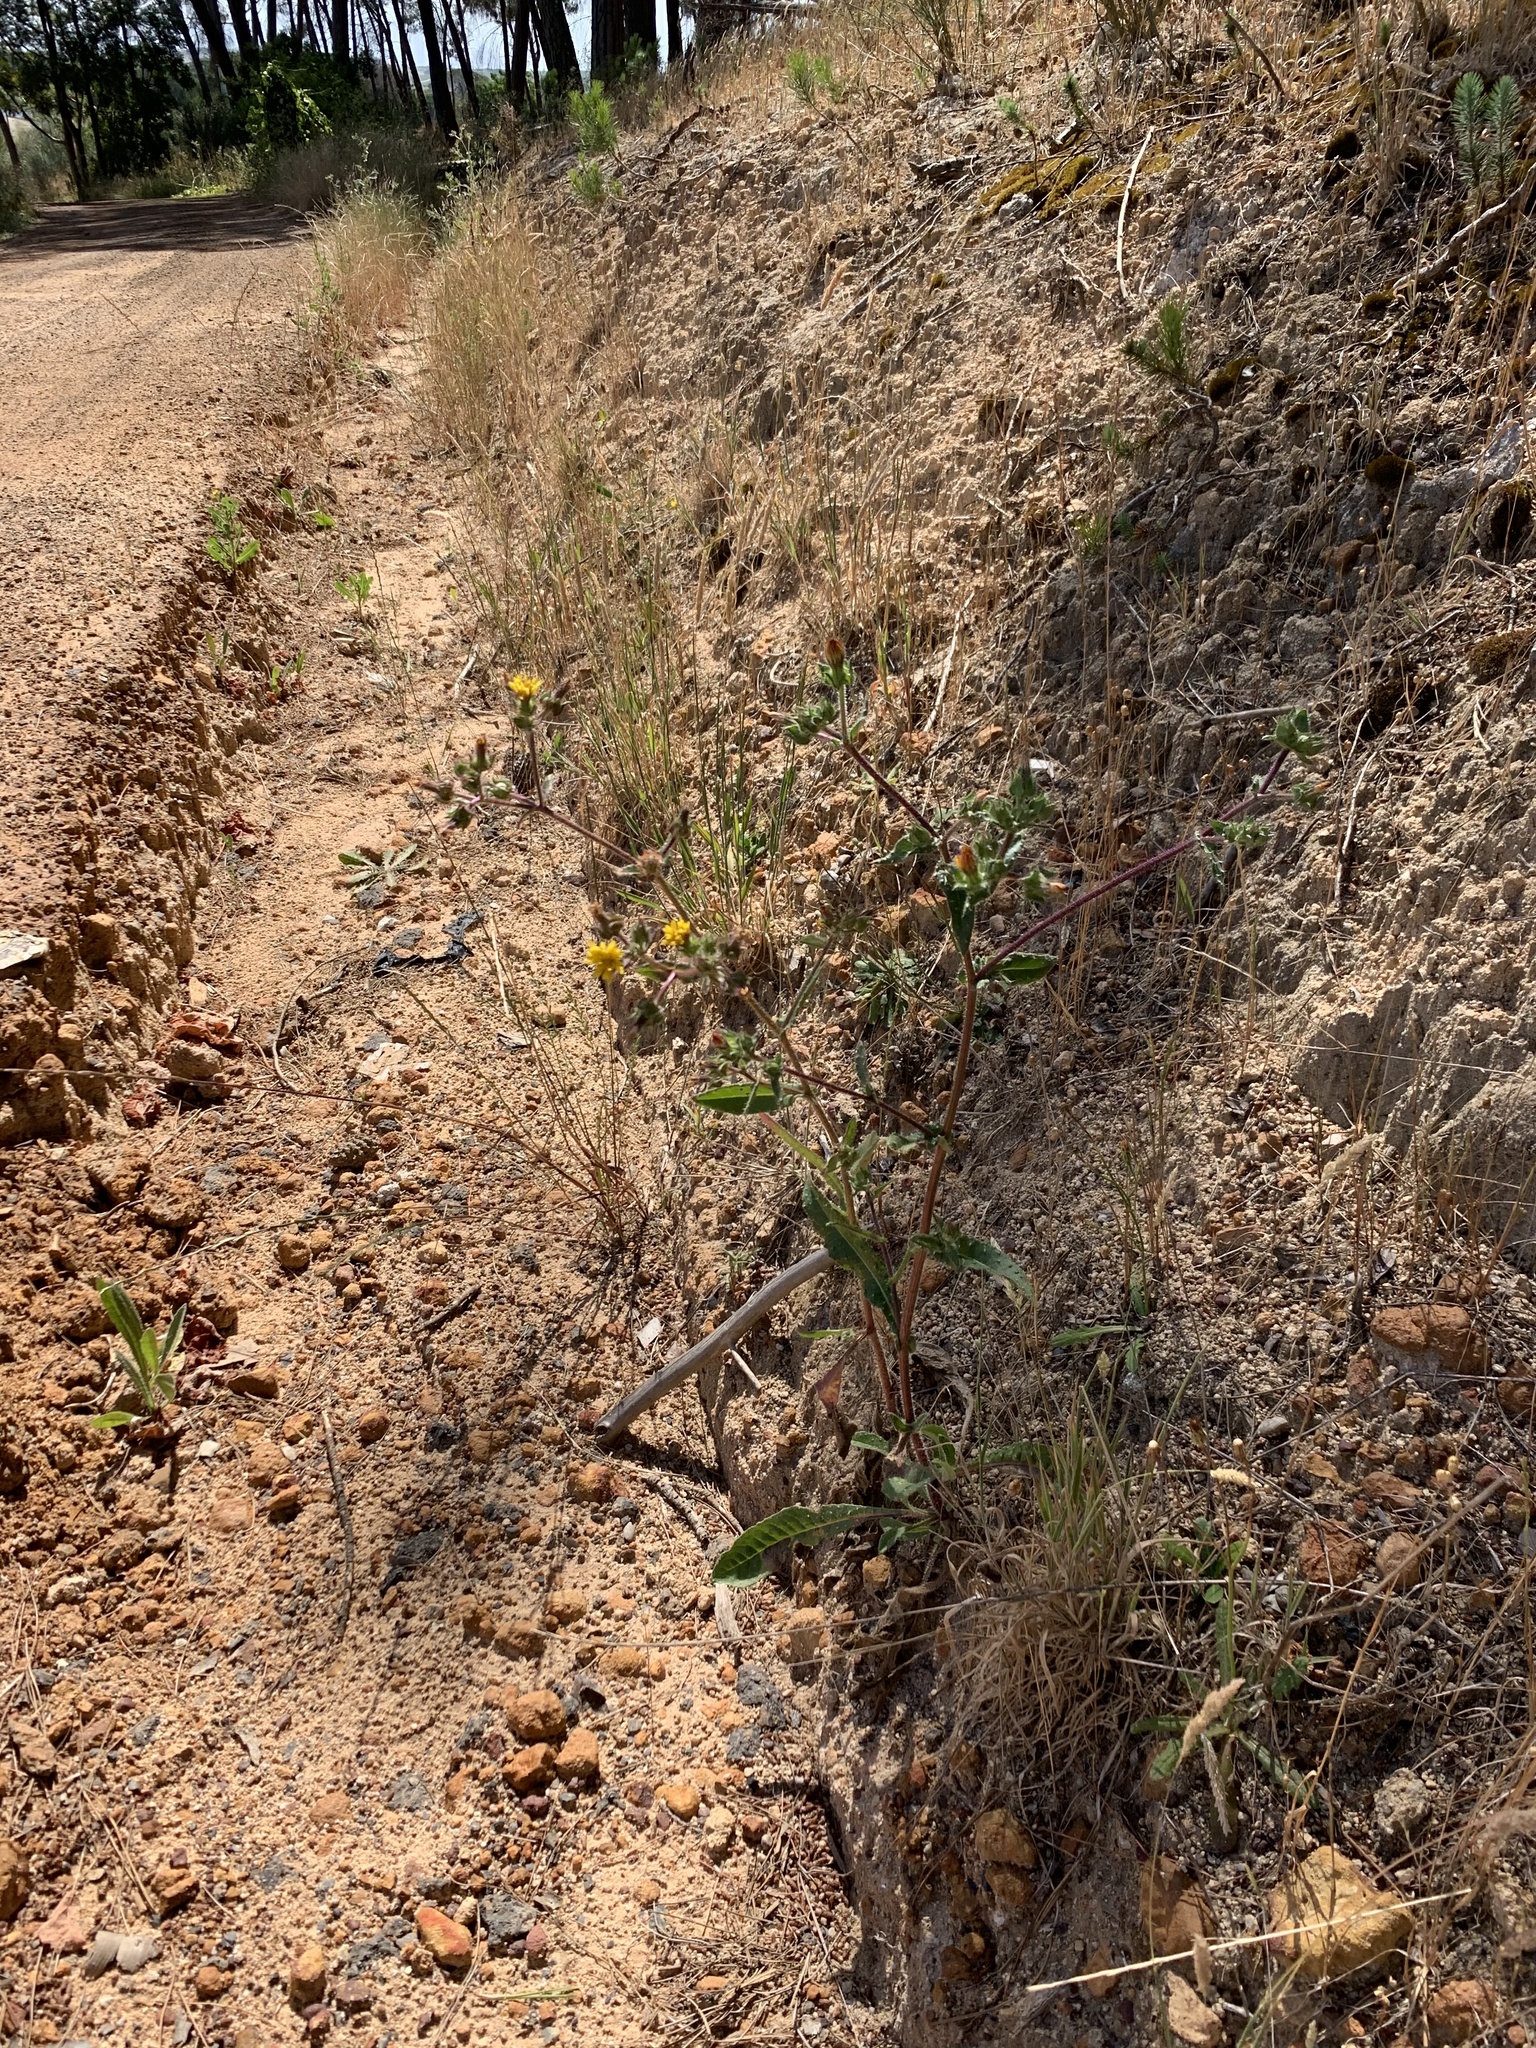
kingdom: Plantae
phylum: Tracheophyta
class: Magnoliopsida
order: Asterales
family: Asteraceae
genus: Helminthotheca
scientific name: Helminthotheca echioides
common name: Ox-tongue
